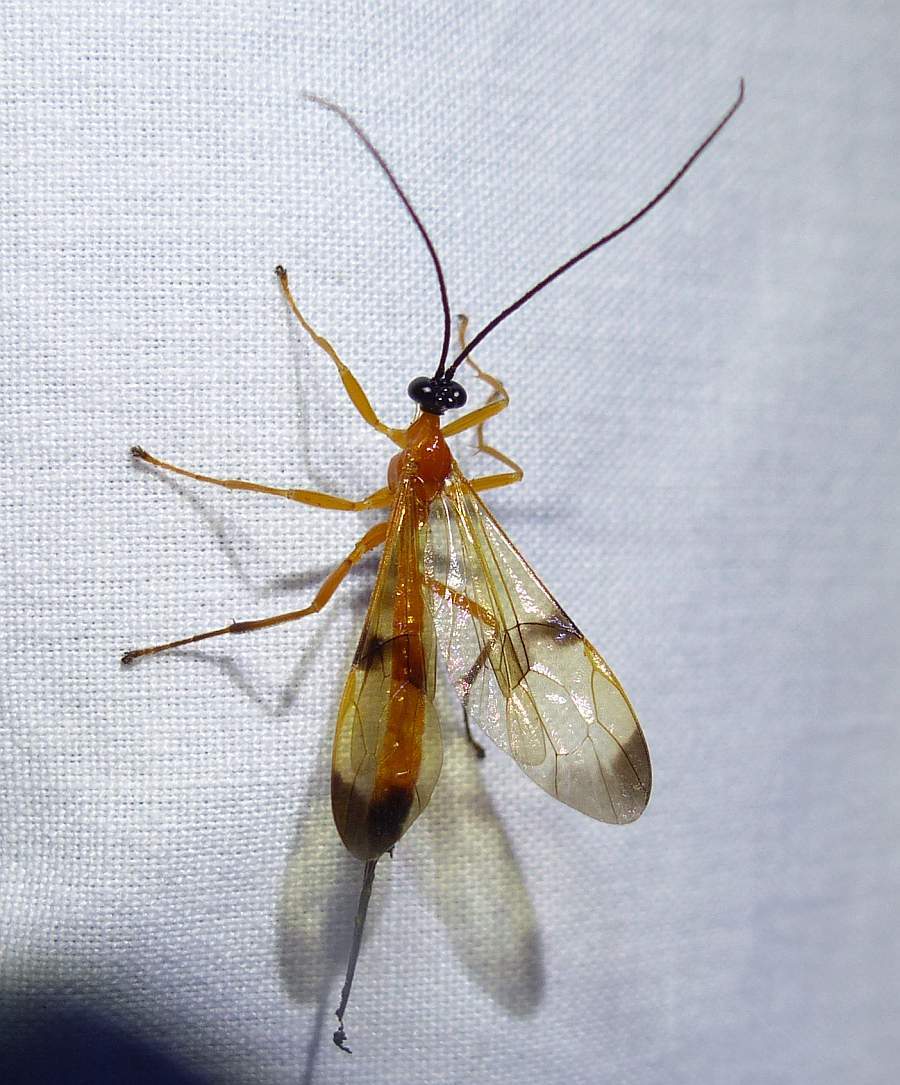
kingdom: Animalia
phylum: Arthropoda
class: Insecta
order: Hymenoptera
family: Ichneumonidae
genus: Acrotaphus
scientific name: Acrotaphus wiltii
